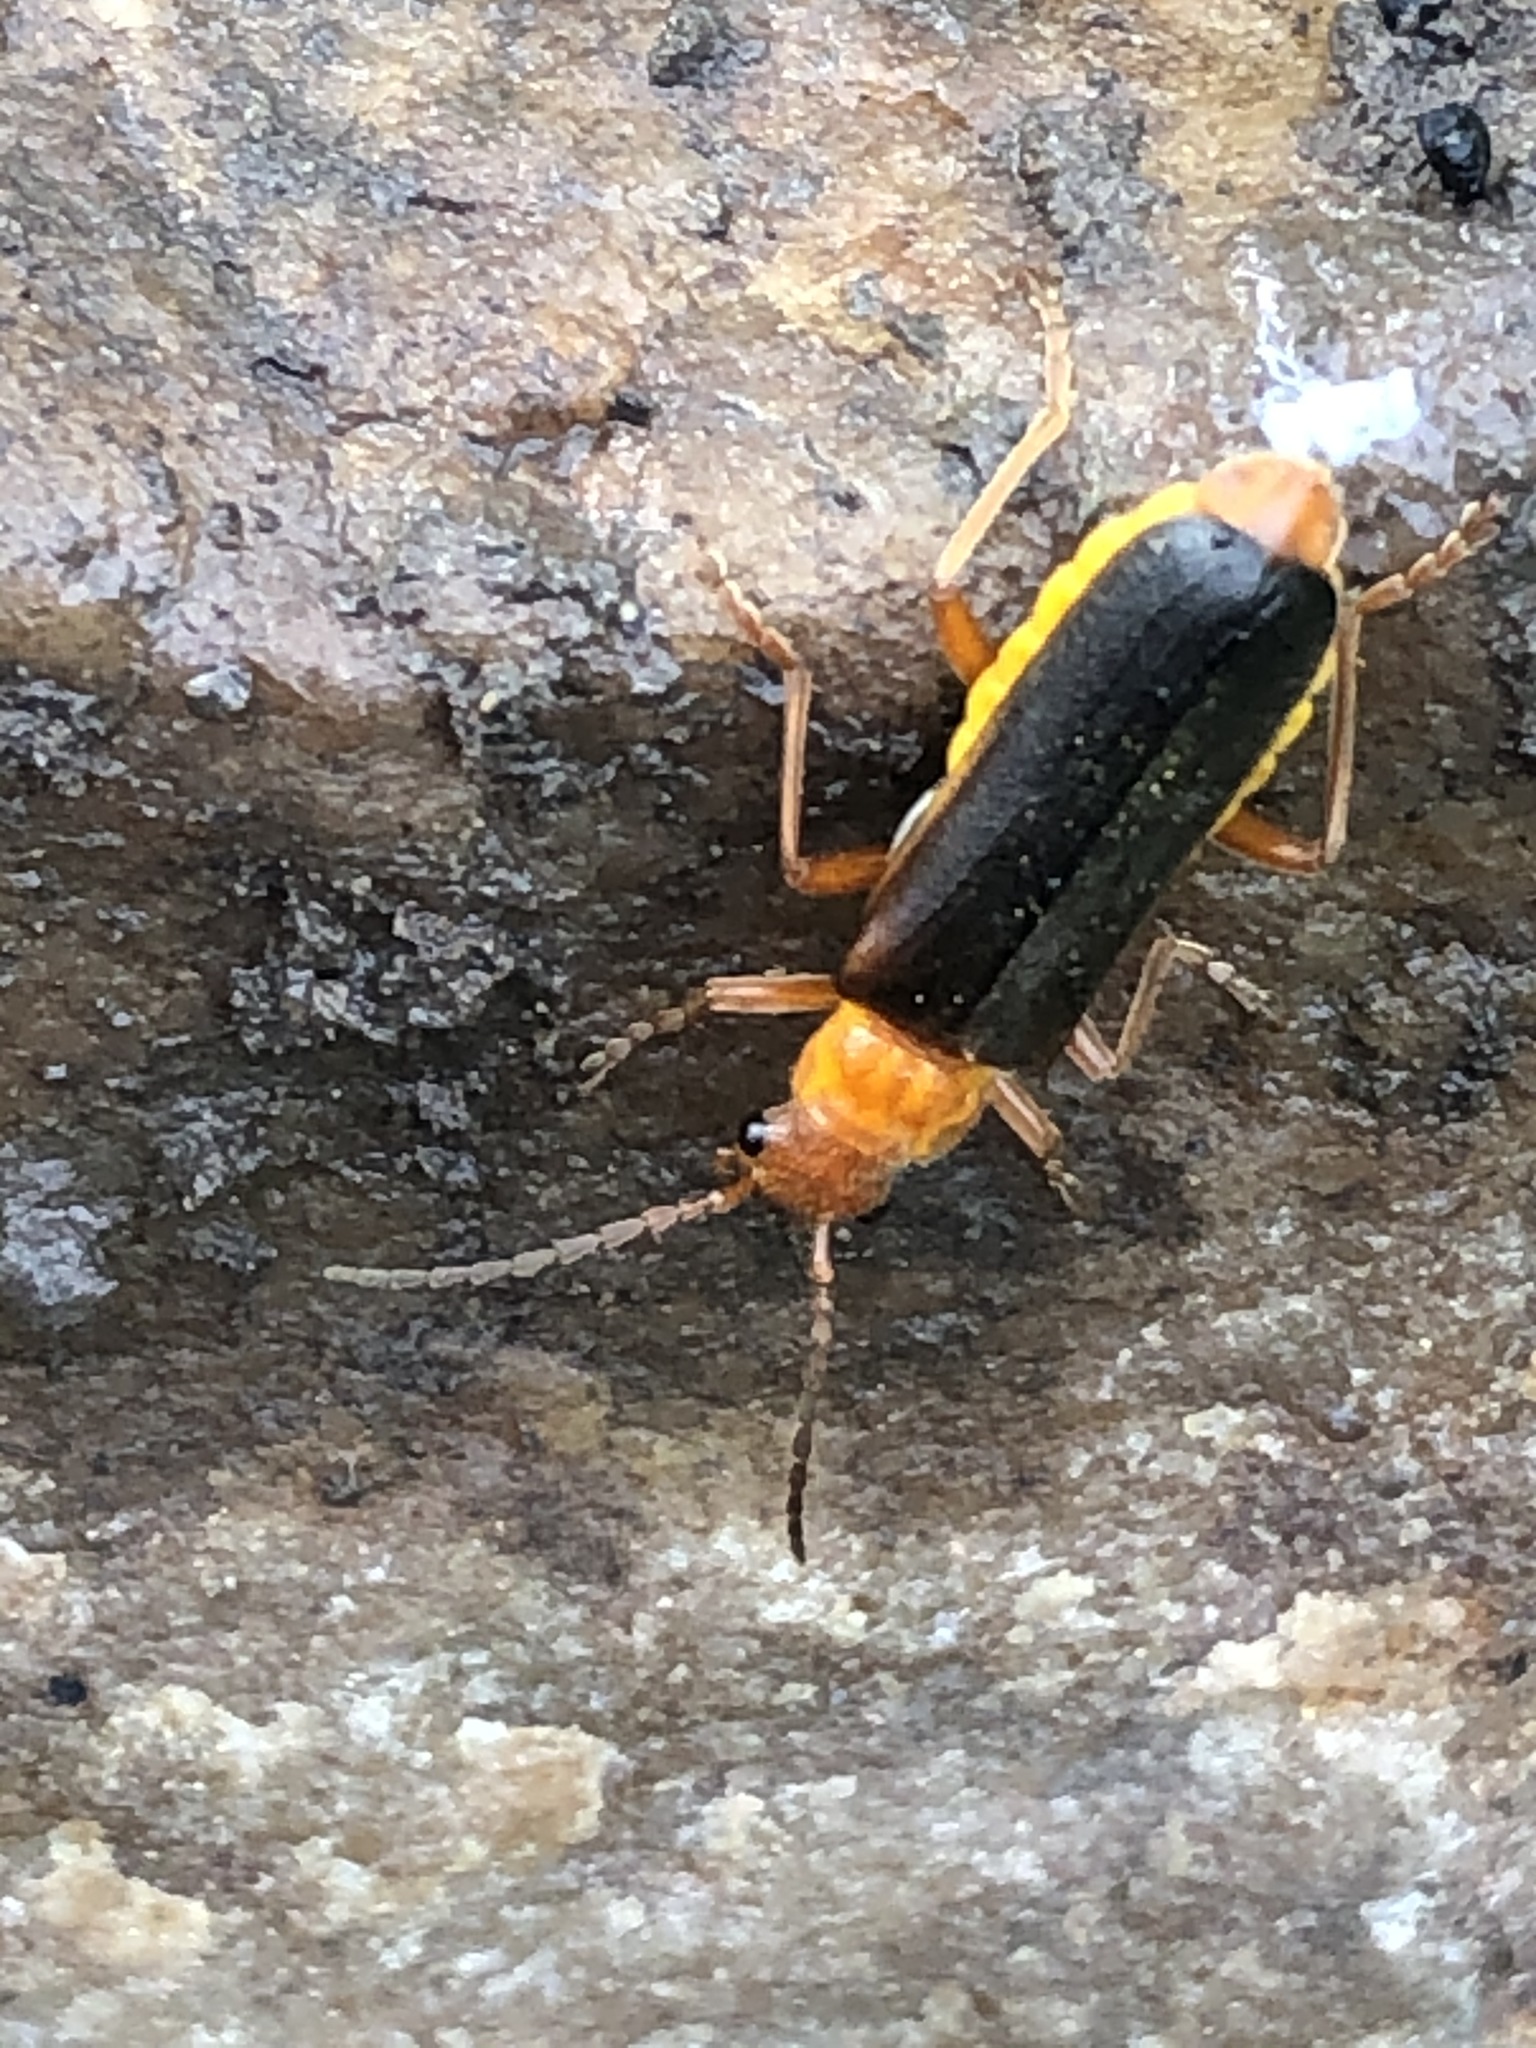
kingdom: Animalia
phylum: Arthropoda
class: Insecta
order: Coleoptera
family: Cantharidae
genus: Podabrus
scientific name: Podabrus pruinosus
